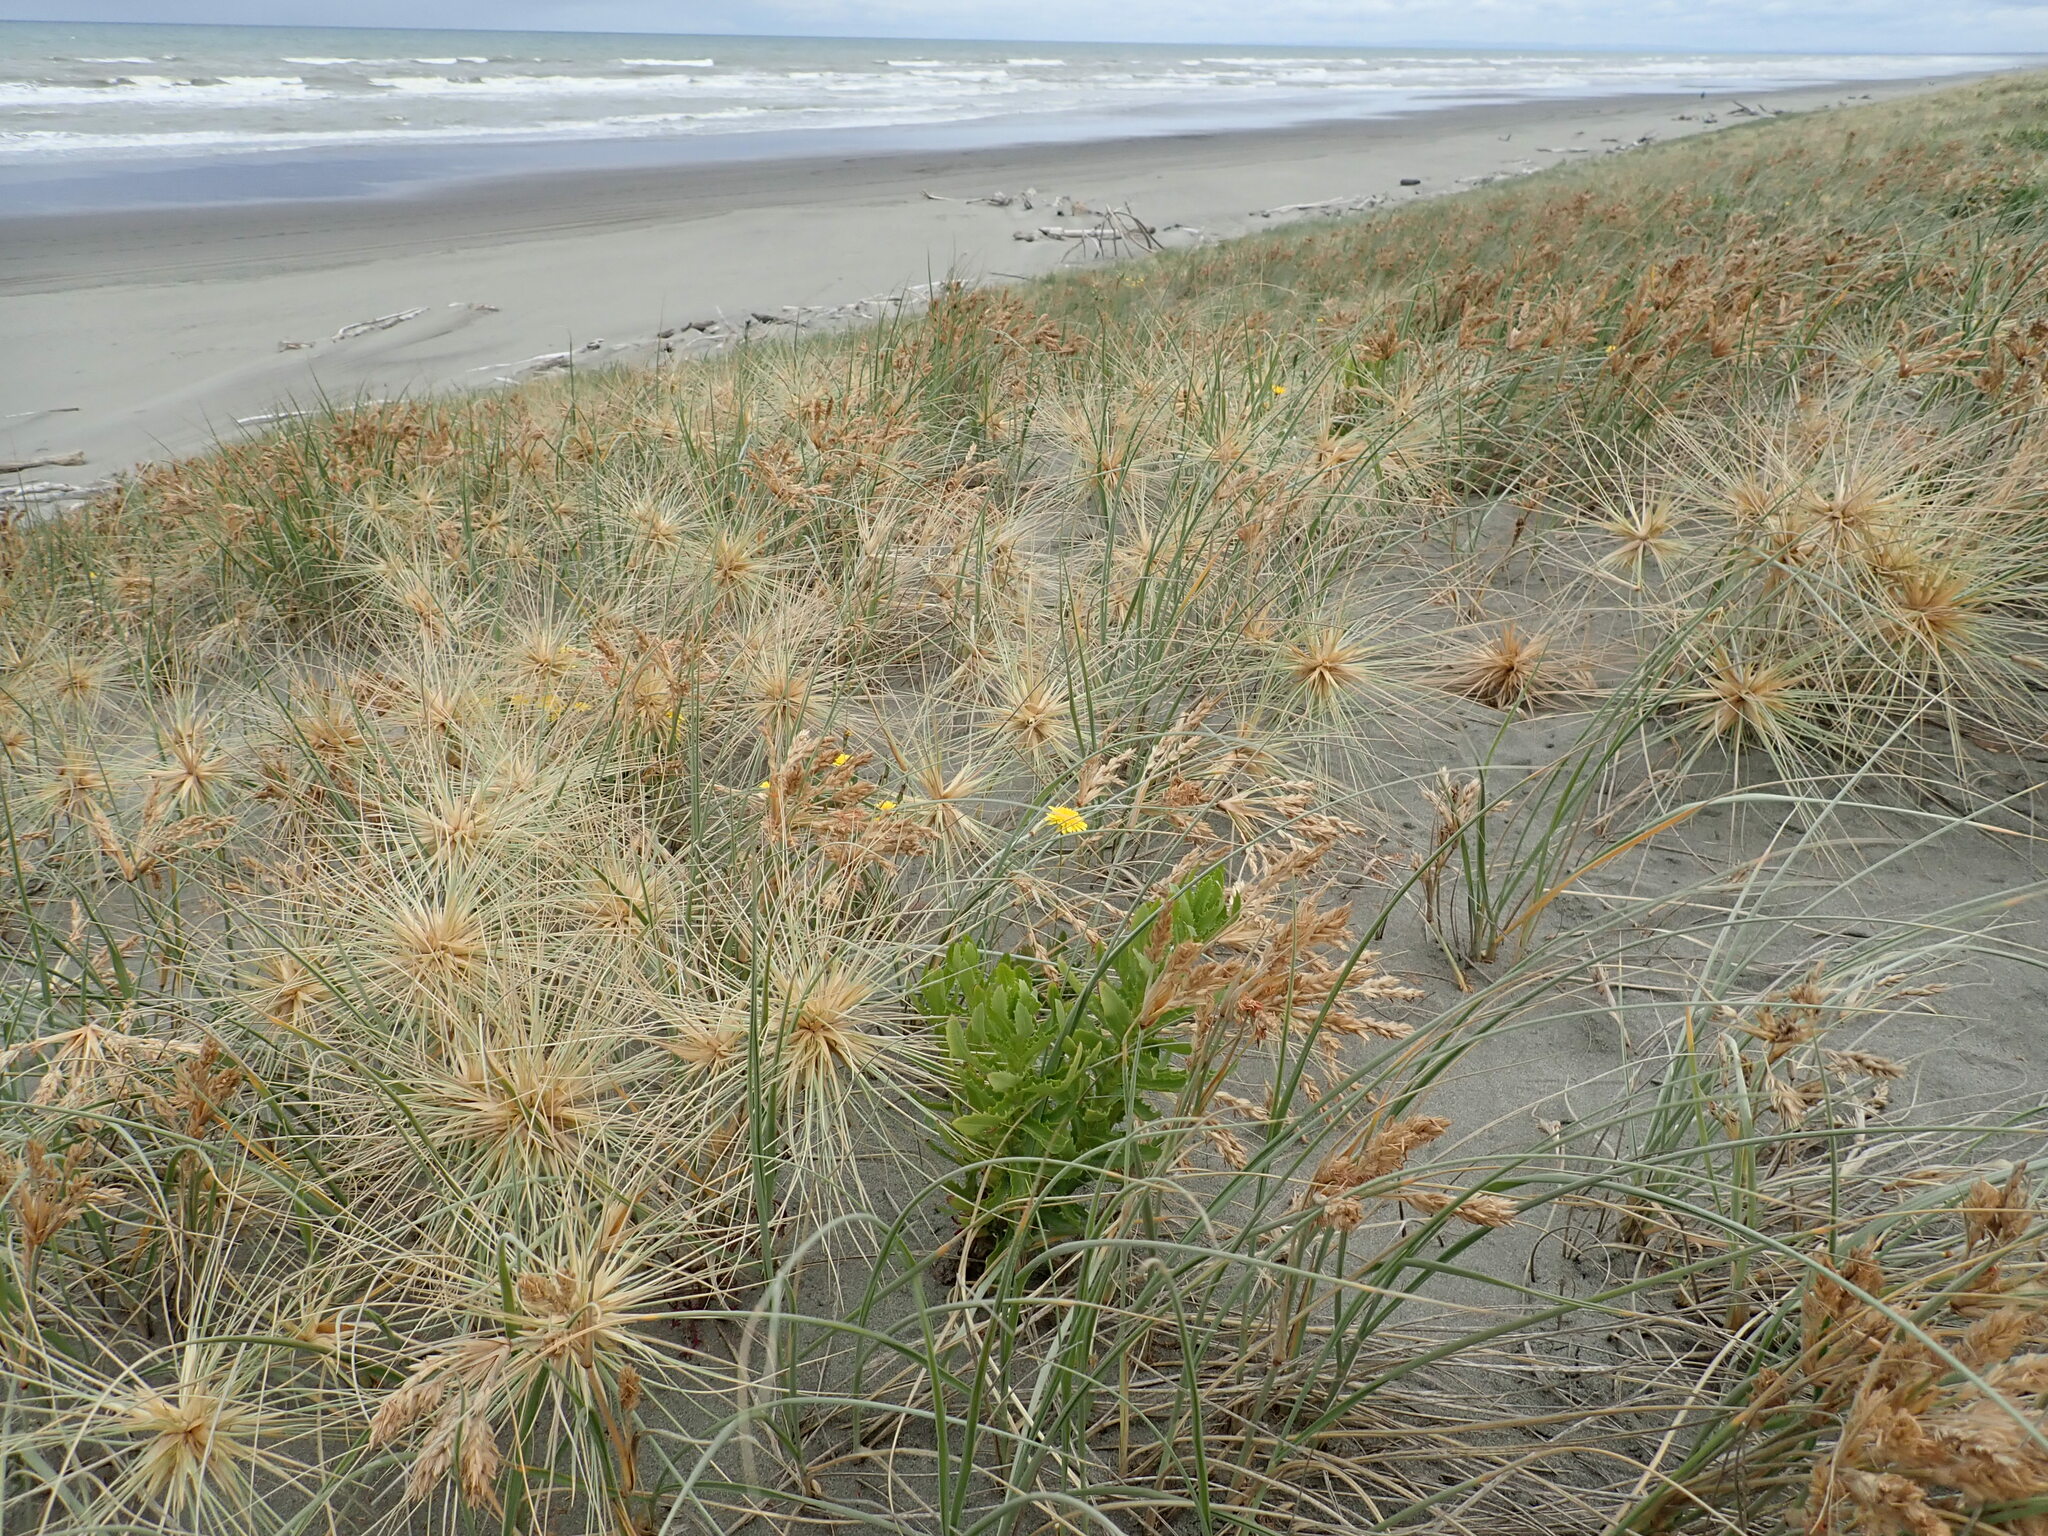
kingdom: Plantae
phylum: Tracheophyta
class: Magnoliopsida
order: Asterales
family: Asteraceae
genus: Senecio
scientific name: Senecio glastifolius
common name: Woad-leaved ragwort
